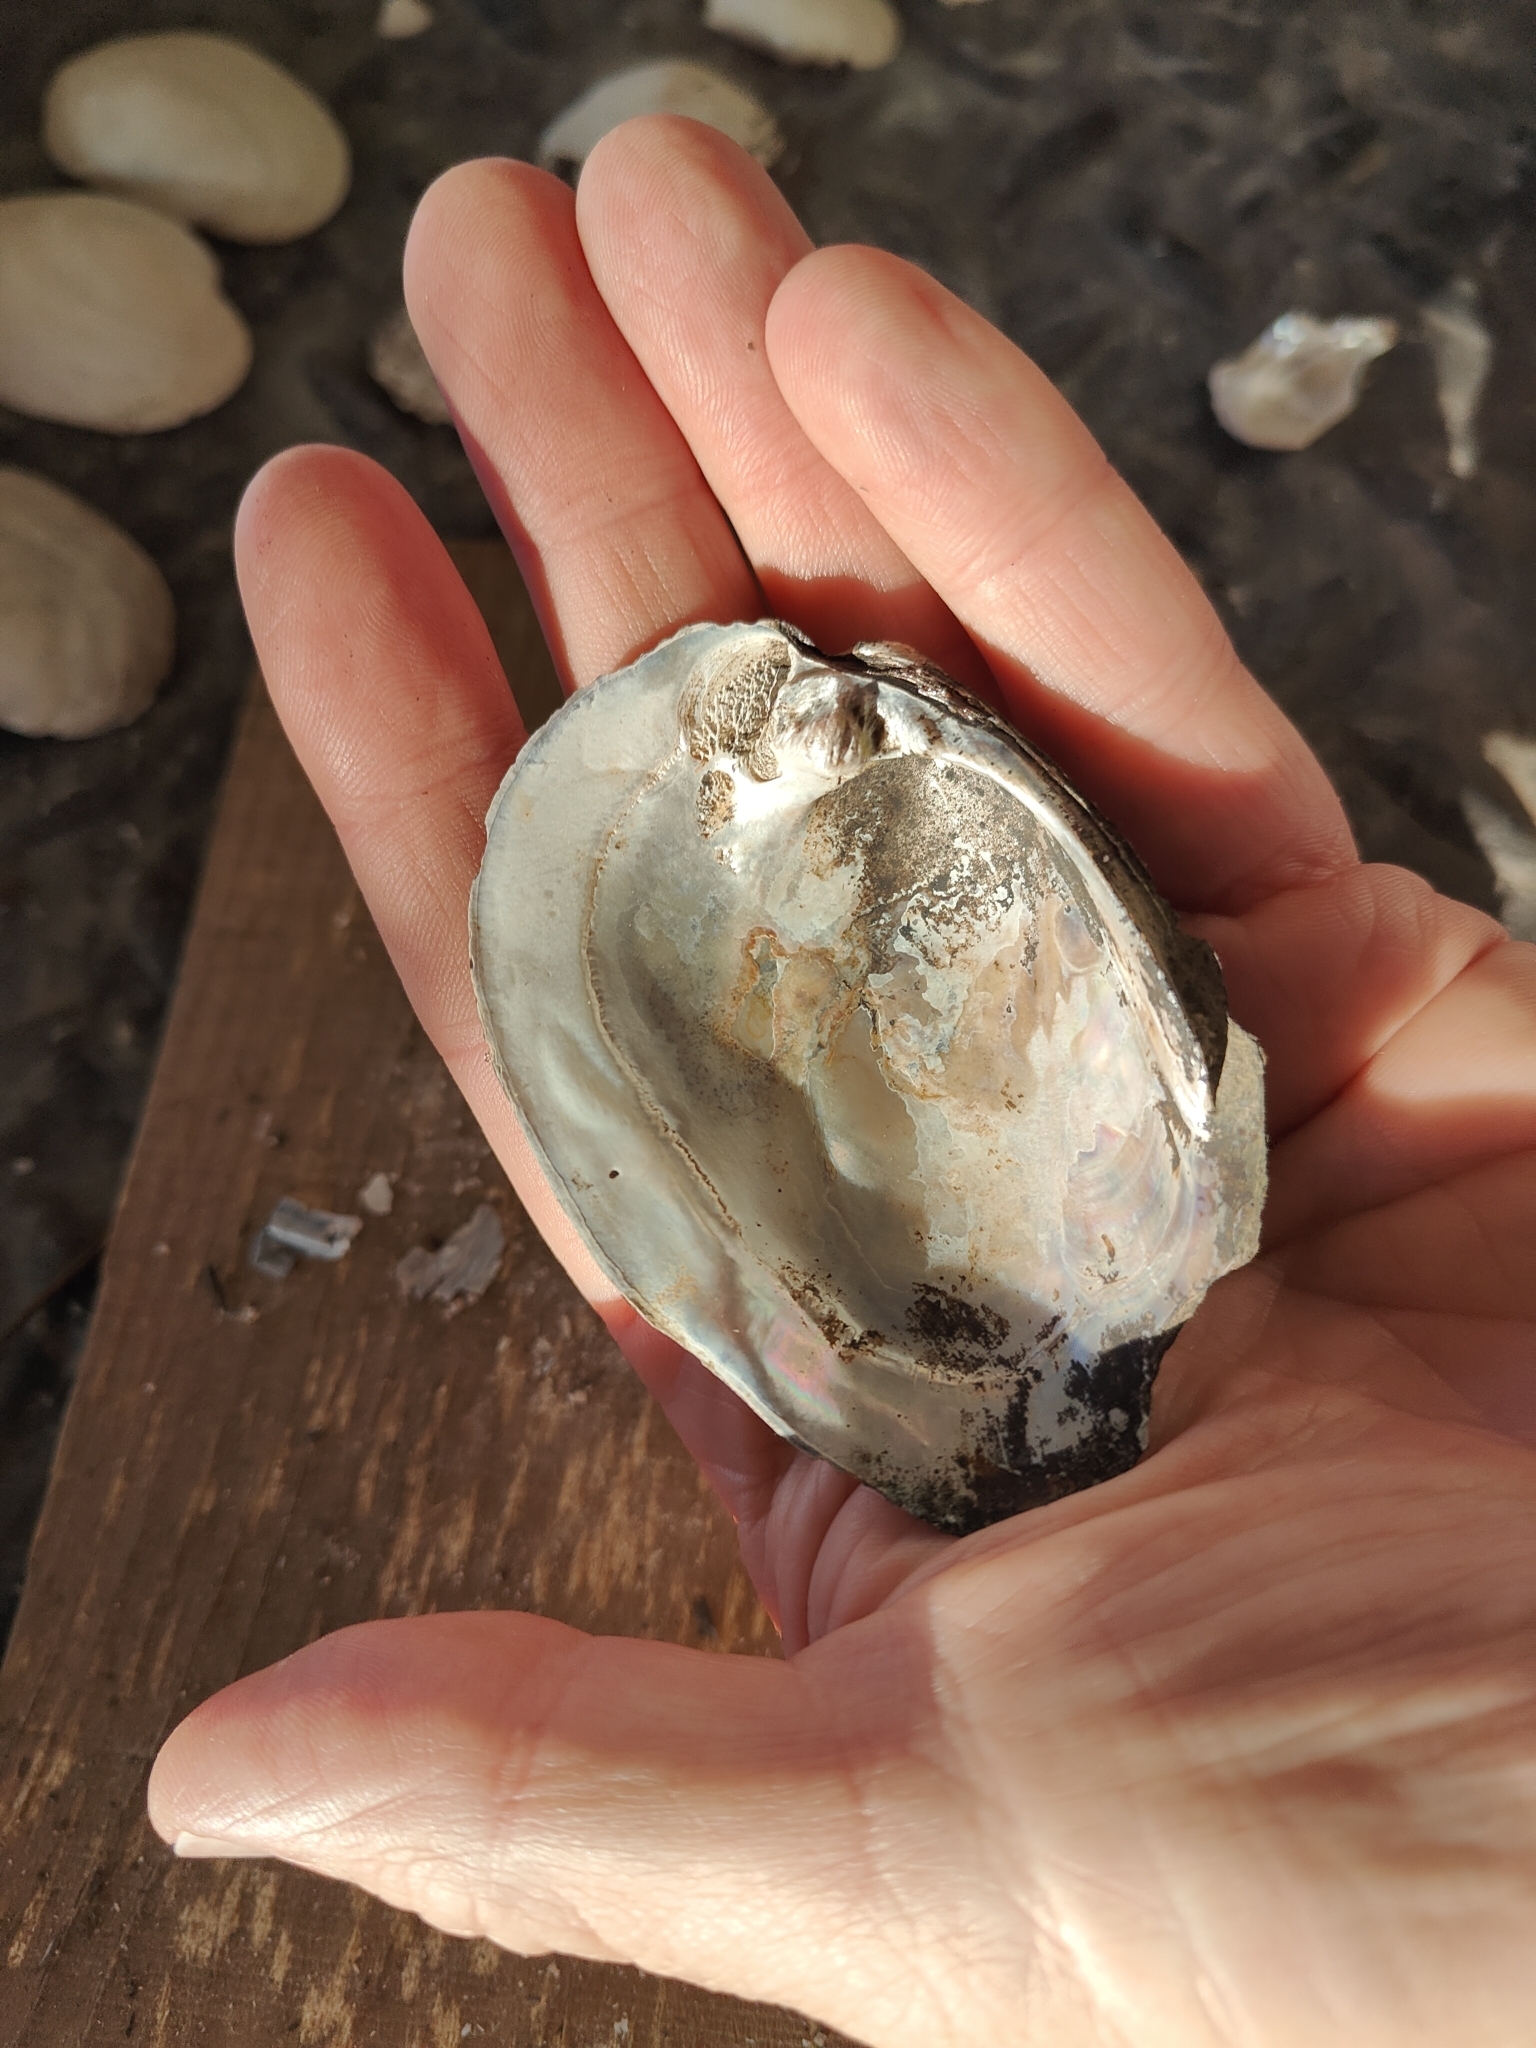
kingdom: Animalia
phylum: Mollusca
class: Bivalvia
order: Unionida
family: Unionidae
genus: Amblema
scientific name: Amblema plicata
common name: Threeridge
